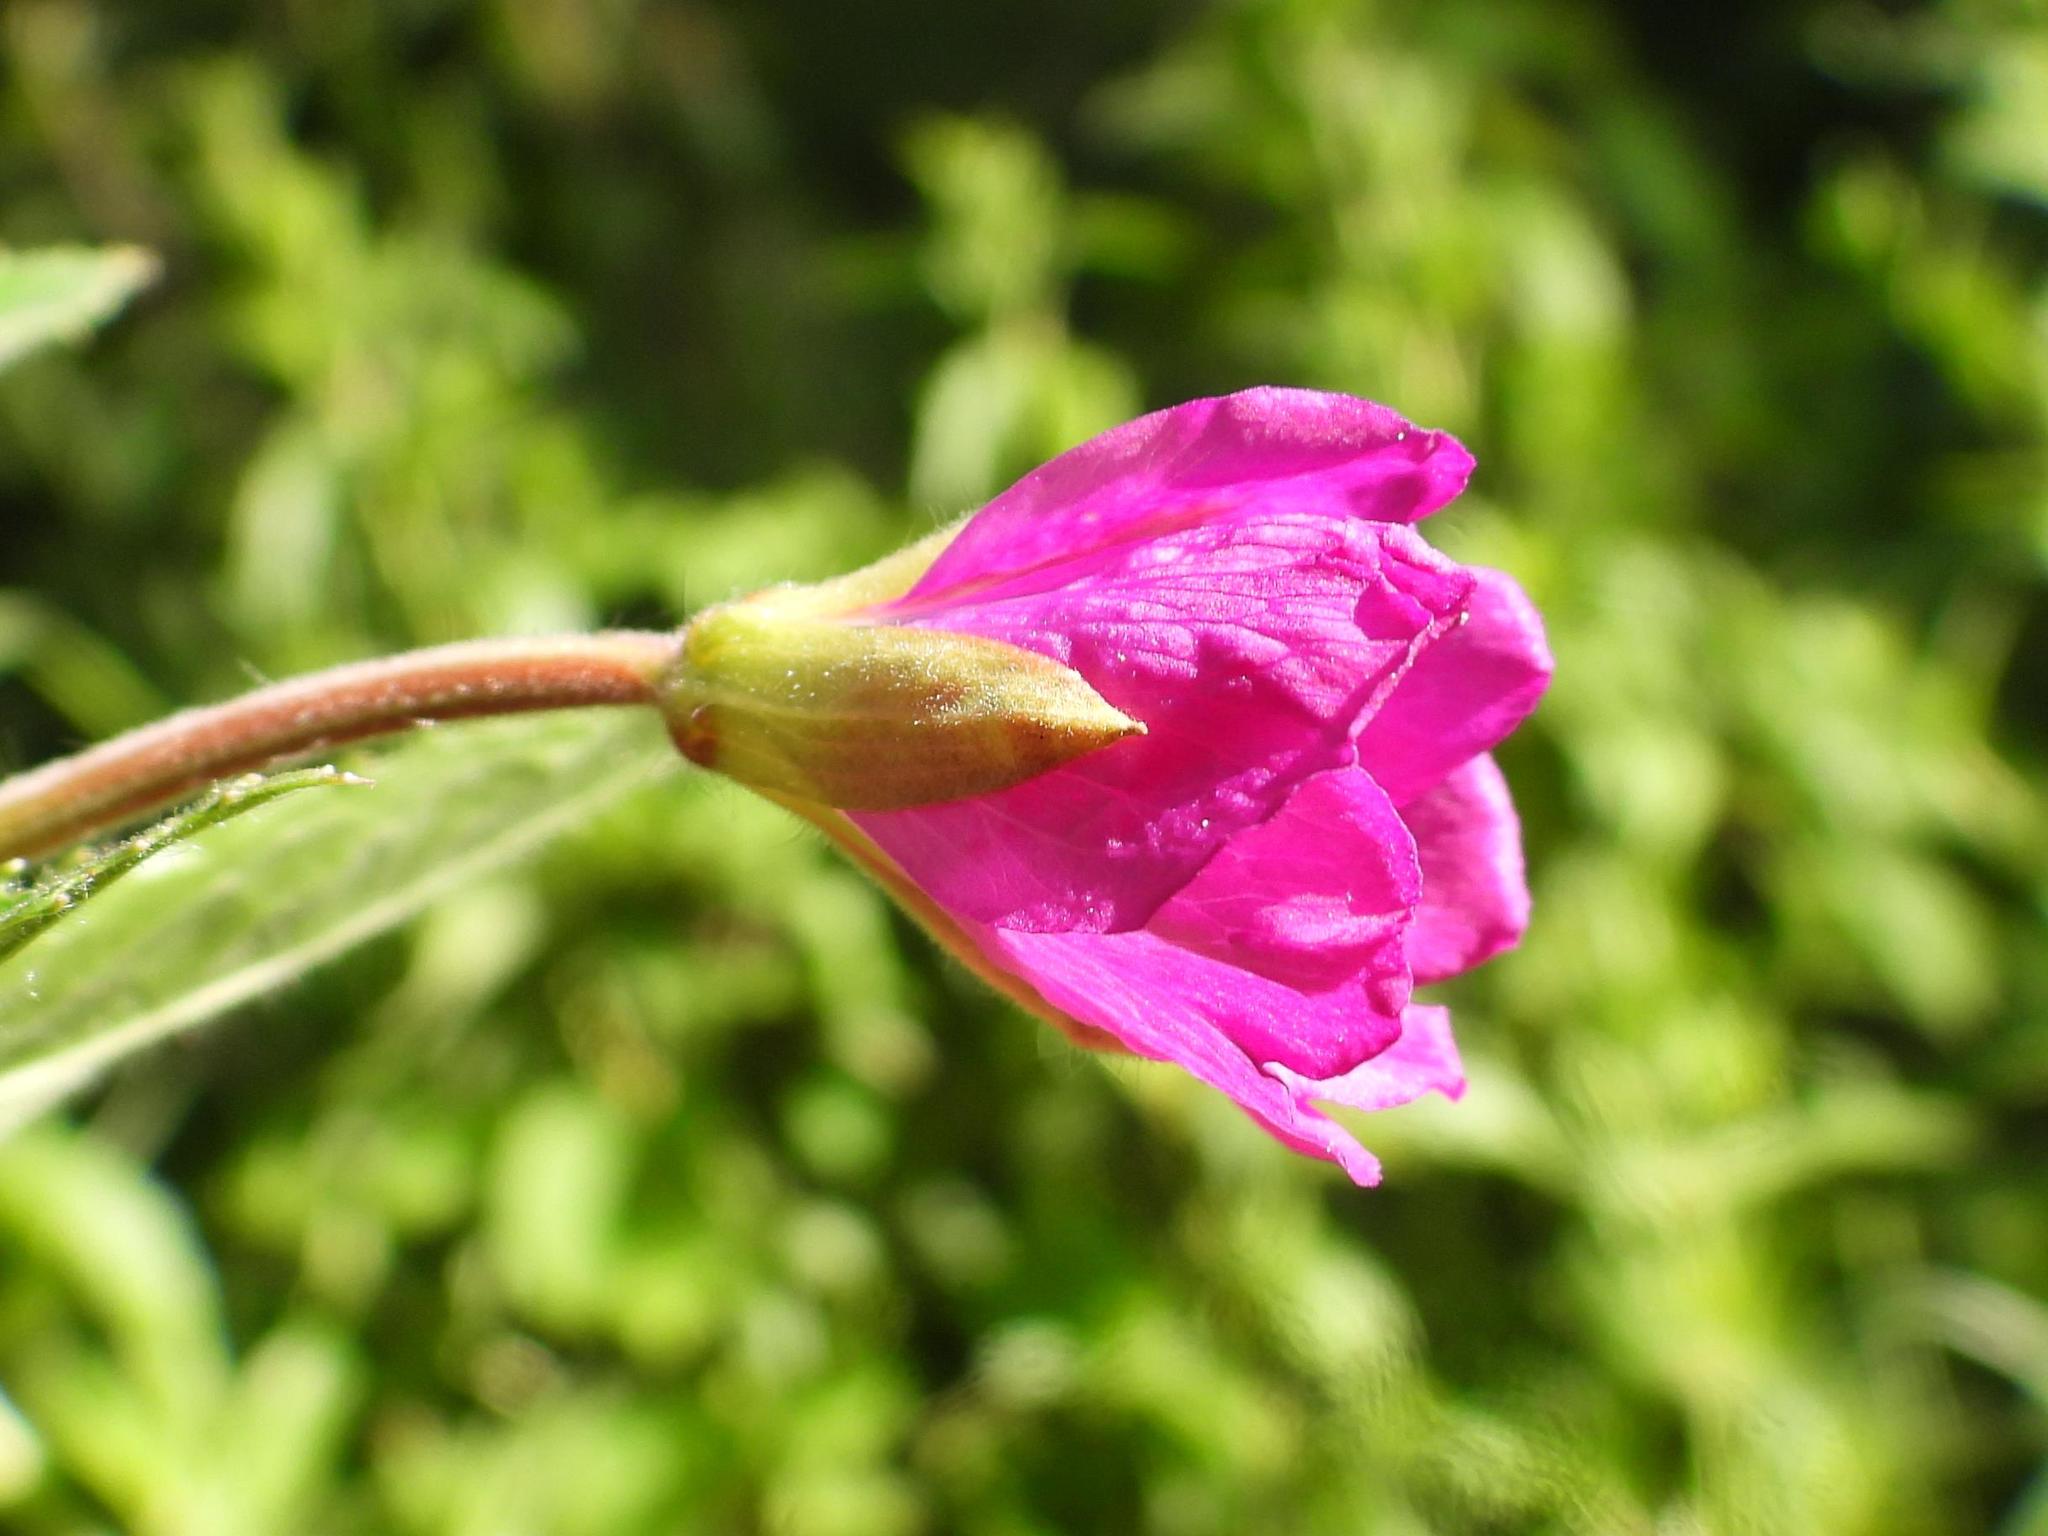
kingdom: Plantae
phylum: Tracheophyta
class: Magnoliopsida
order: Myrtales
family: Onagraceae
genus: Epilobium
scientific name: Epilobium hirsutum
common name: Great willowherb
